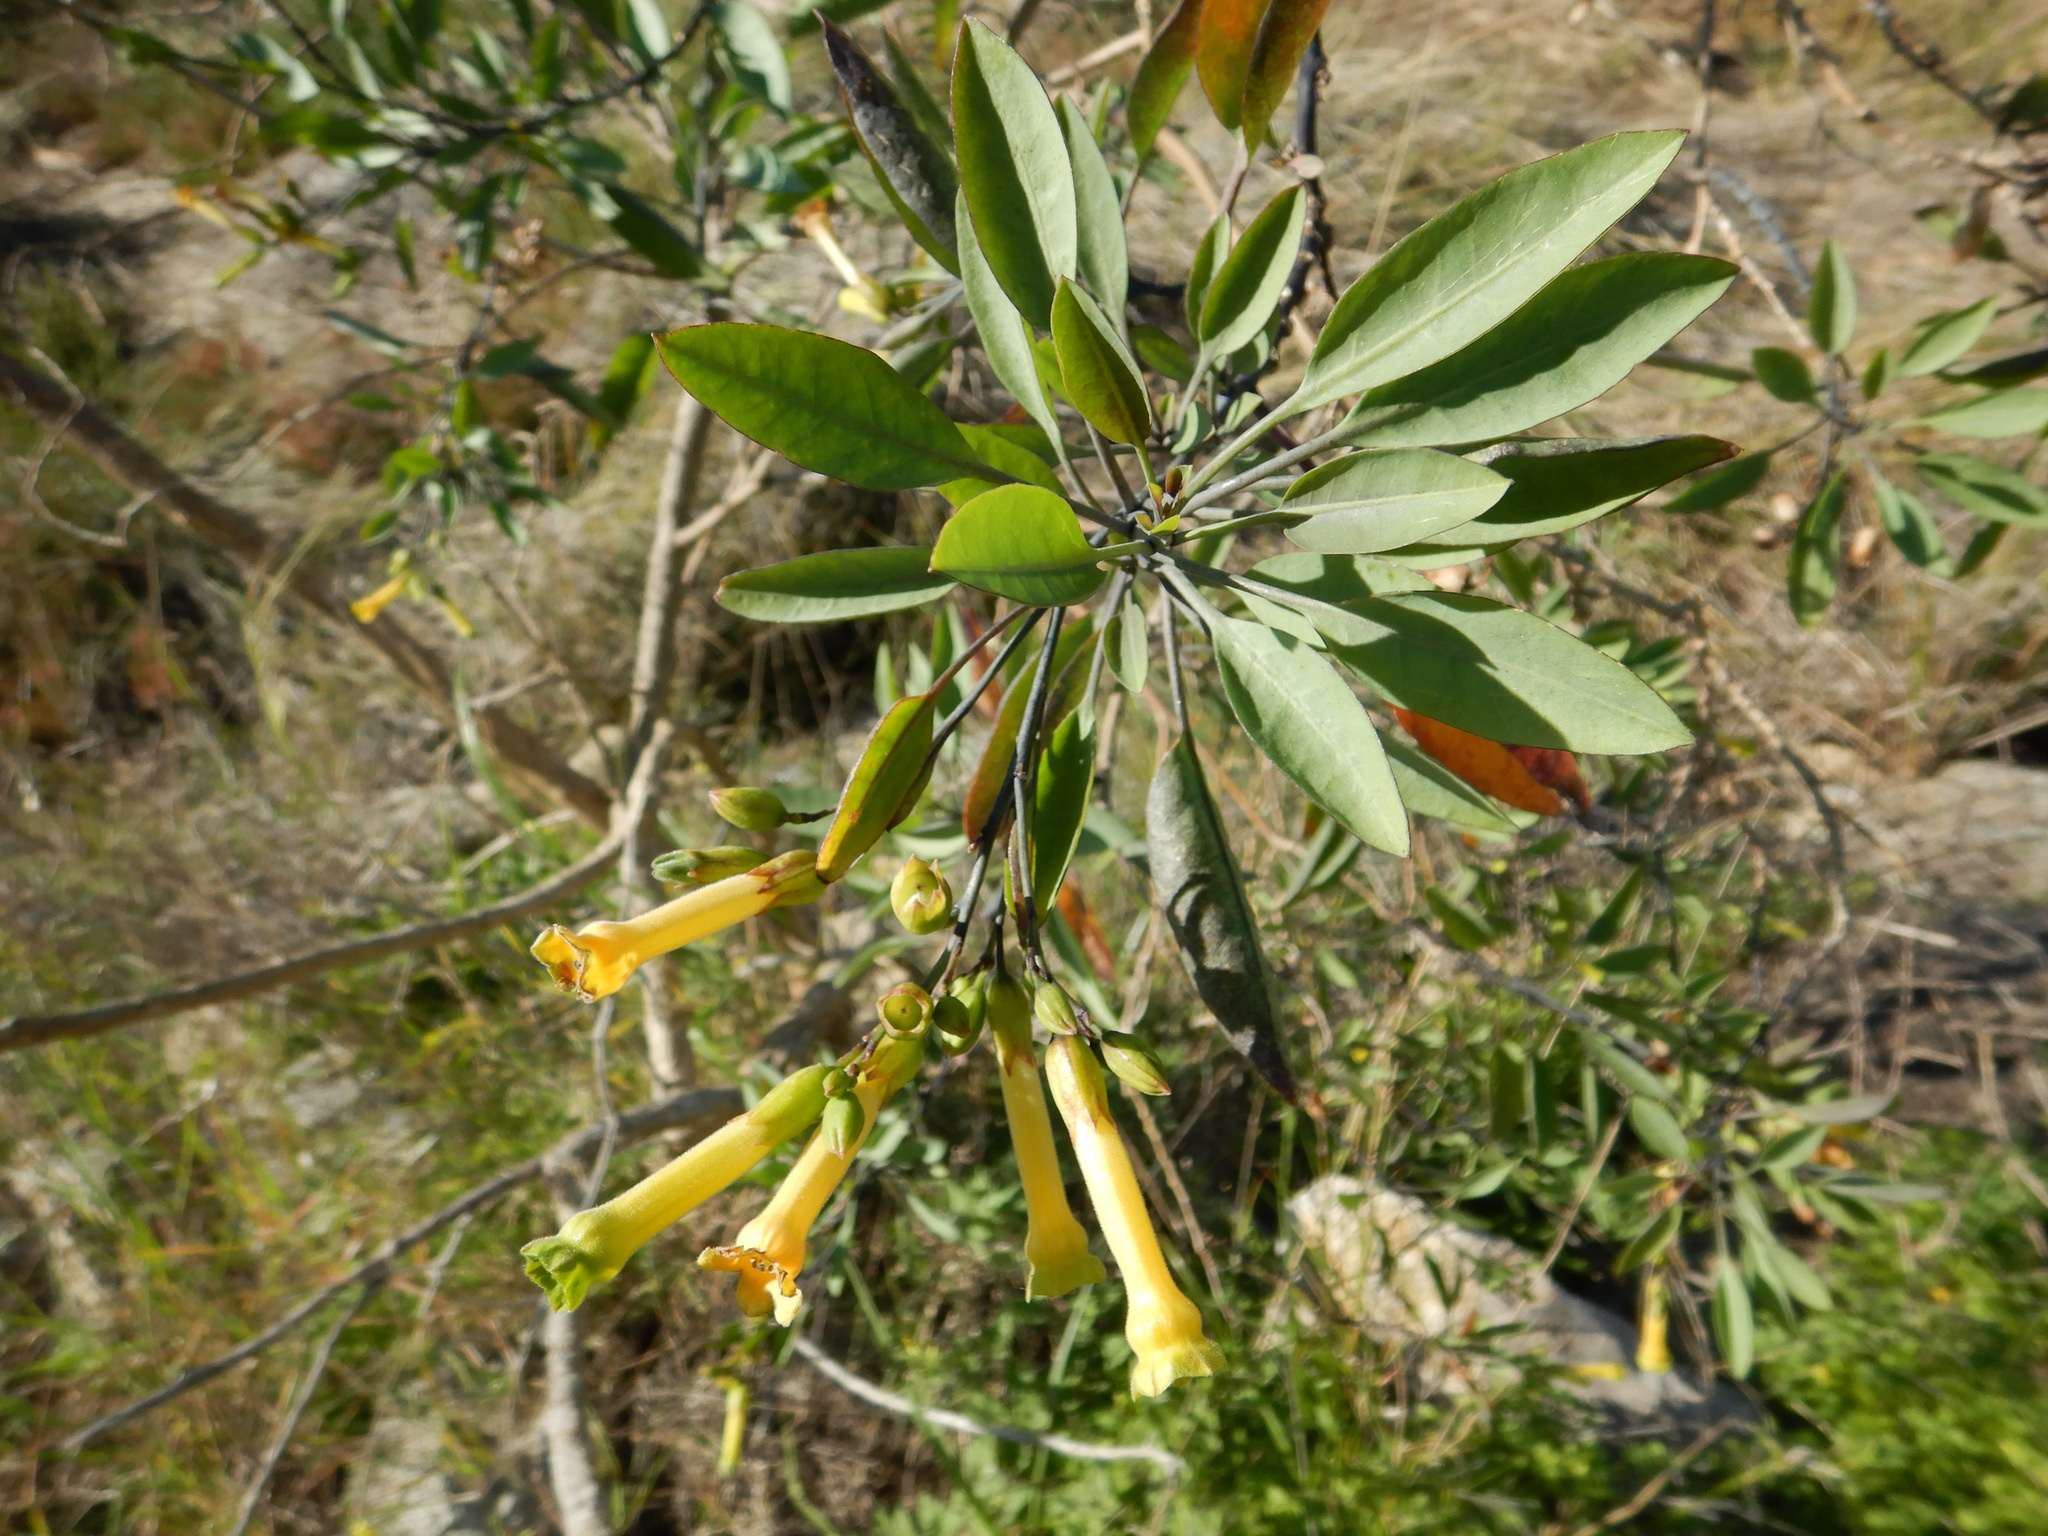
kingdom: Plantae
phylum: Tracheophyta
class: Magnoliopsida
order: Solanales
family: Solanaceae
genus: Nicotiana
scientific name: Nicotiana glauca
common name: Tree tobacco
